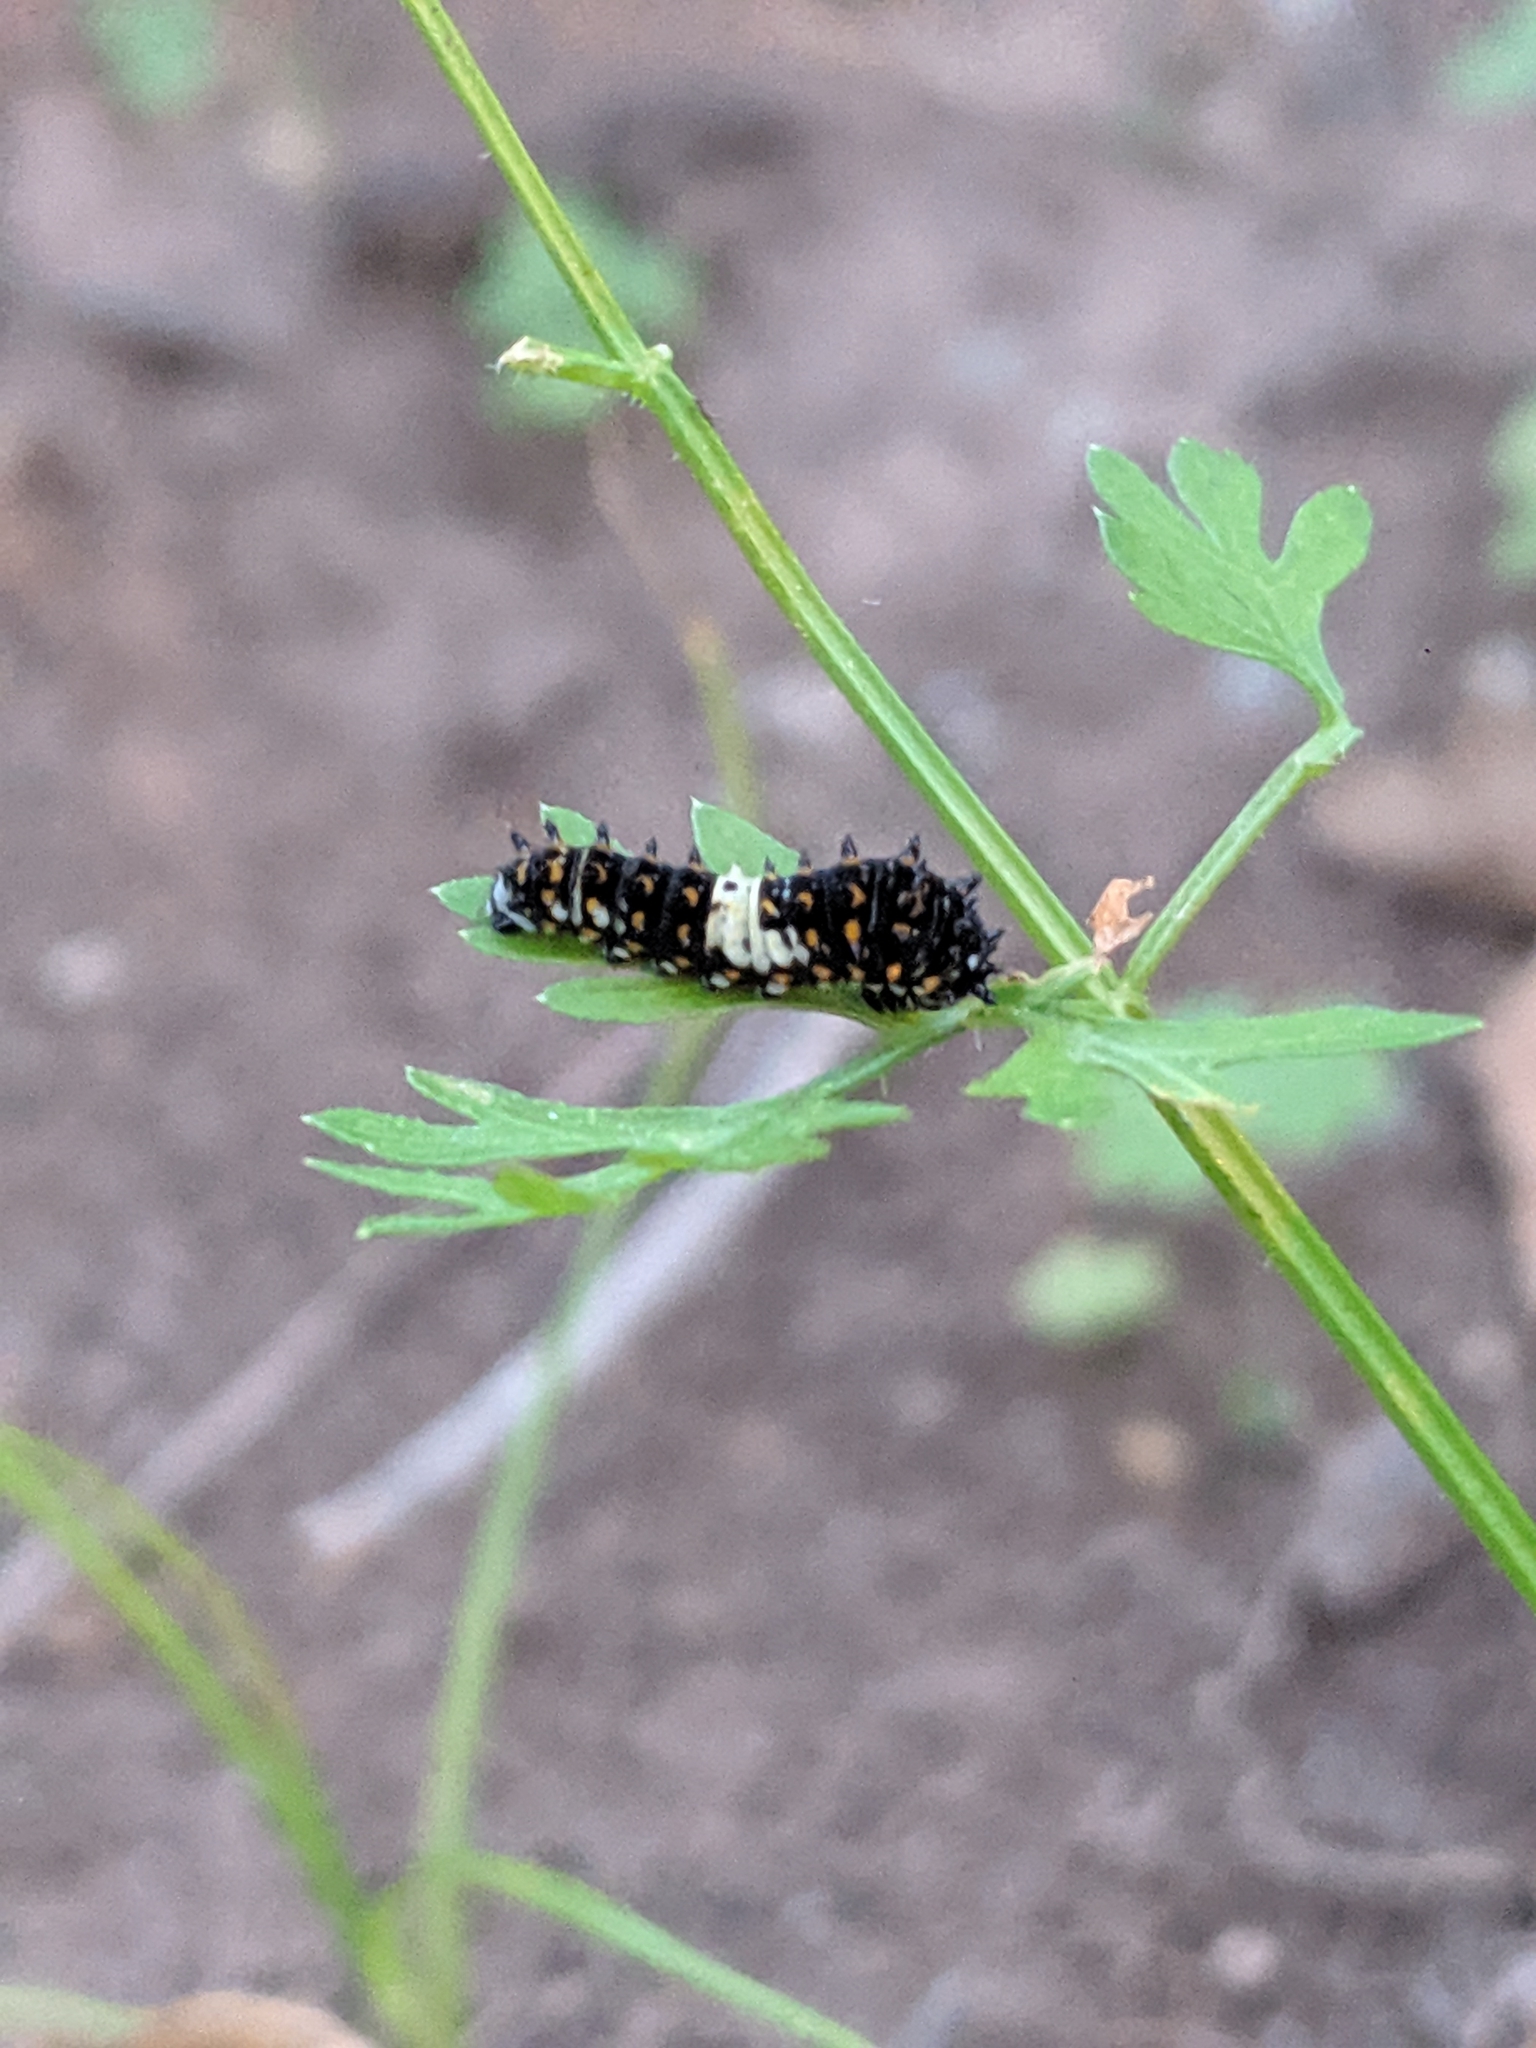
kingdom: Animalia
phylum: Arthropoda
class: Insecta
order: Lepidoptera
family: Papilionidae
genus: Papilio
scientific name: Papilio polyxenes
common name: Black swallowtail
